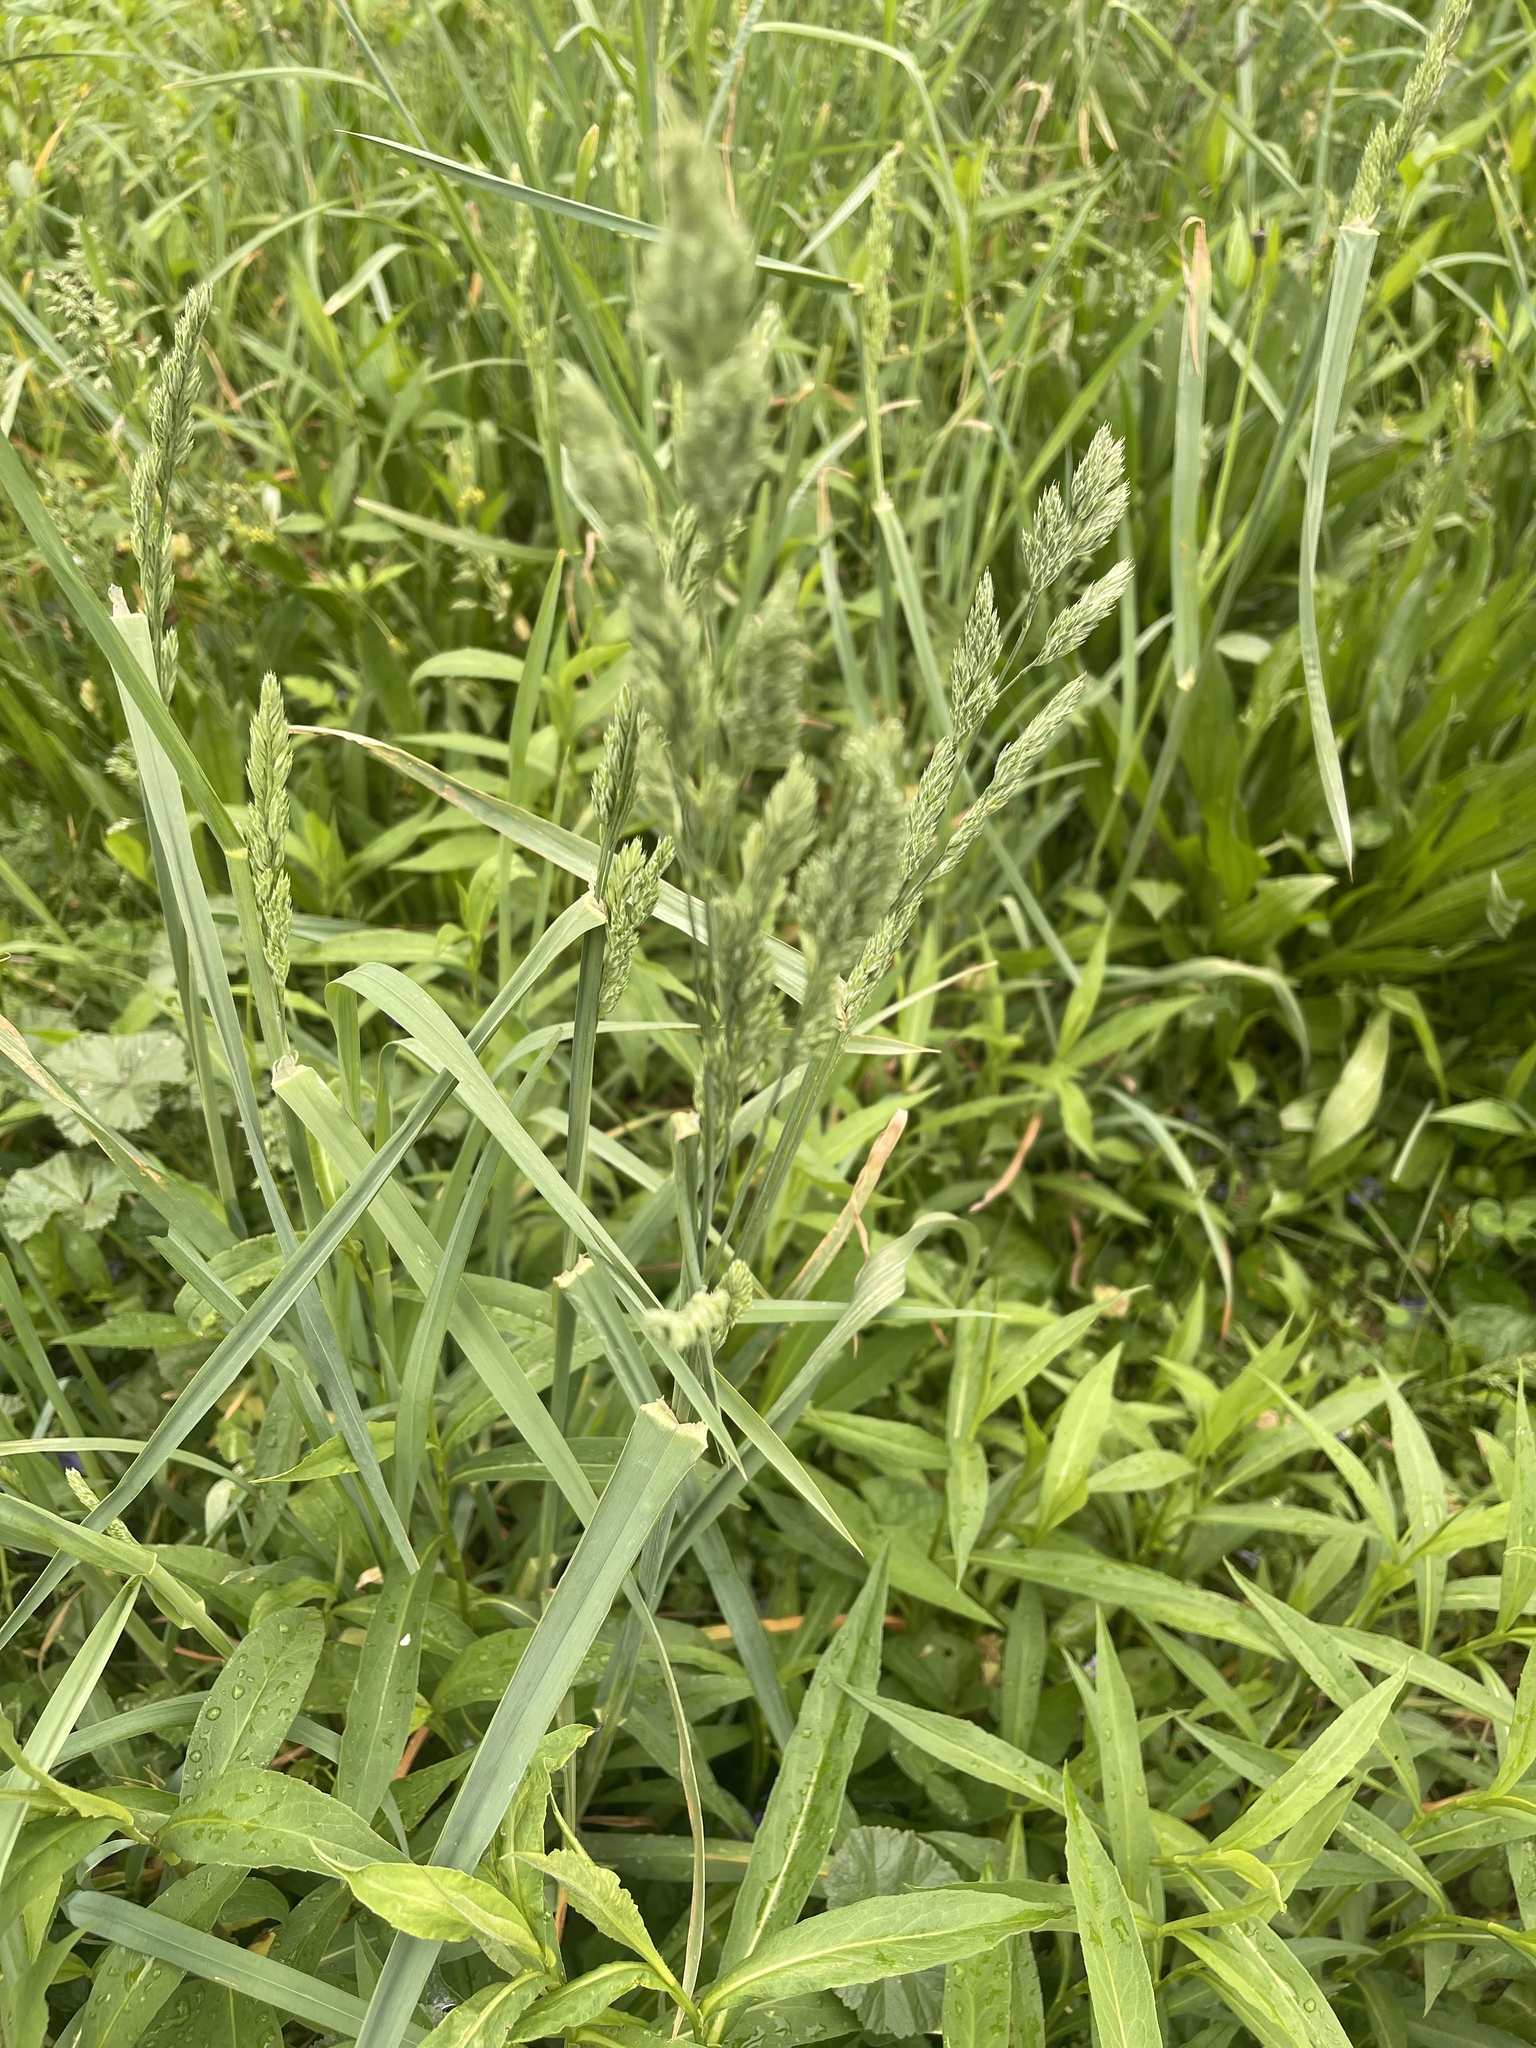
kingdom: Plantae
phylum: Tracheophyta
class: Liliopsida
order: Poales
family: Poaceae
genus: Dactylis
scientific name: Dactylis glomerata
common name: Orchardgrass
